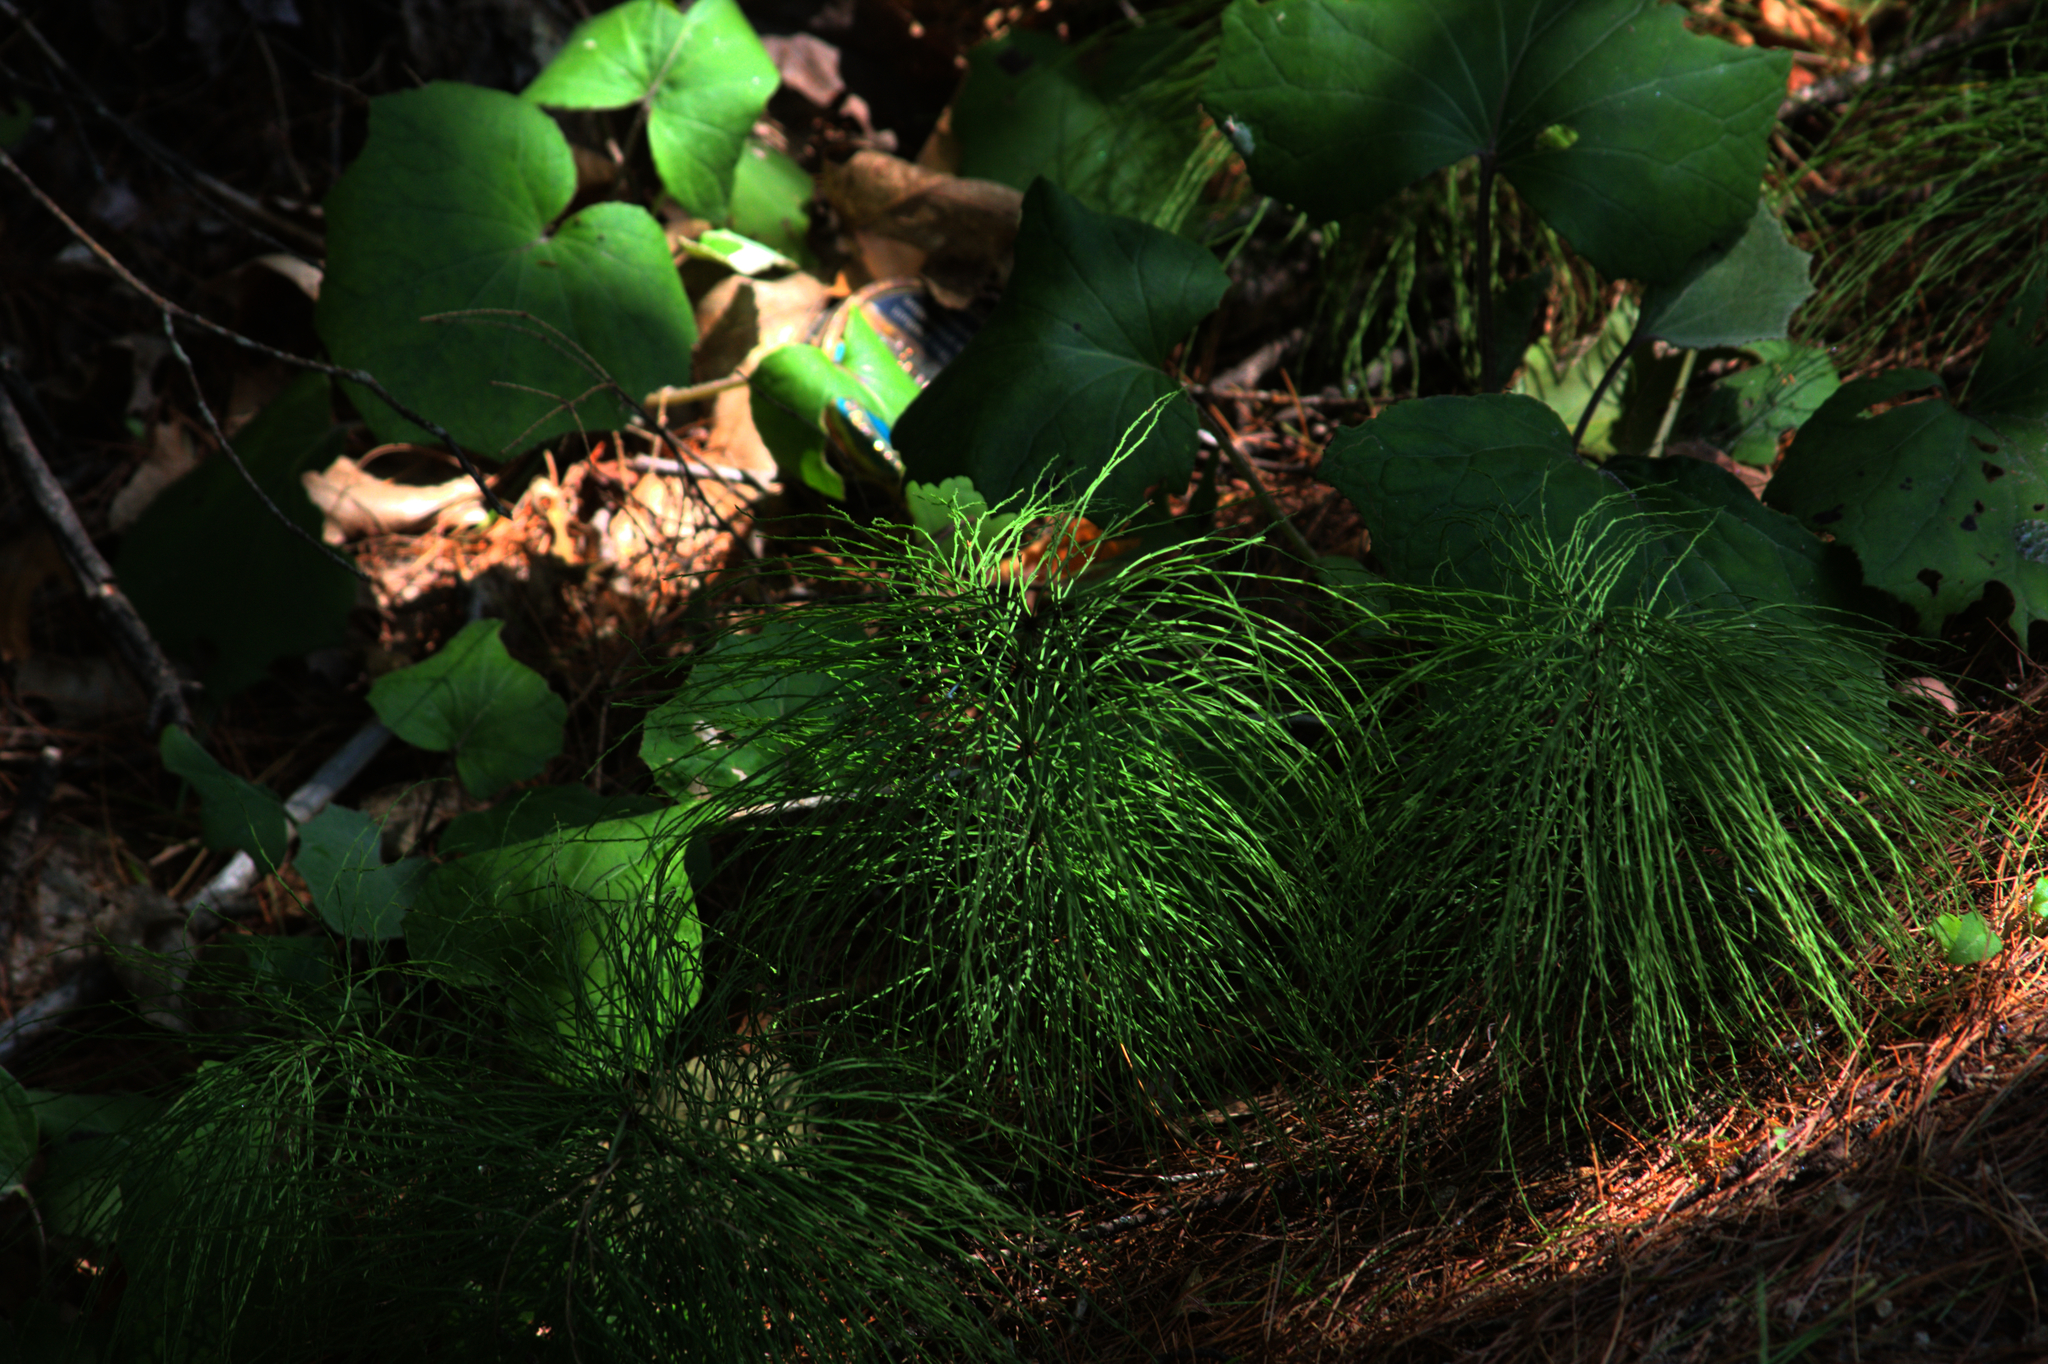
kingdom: Plantae
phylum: Tracheophyta
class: Polypodiopsida
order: Equisetales
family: Equisetaceae
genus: Equisetum
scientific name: Equisetum sylvaticum
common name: Wood horsetail
